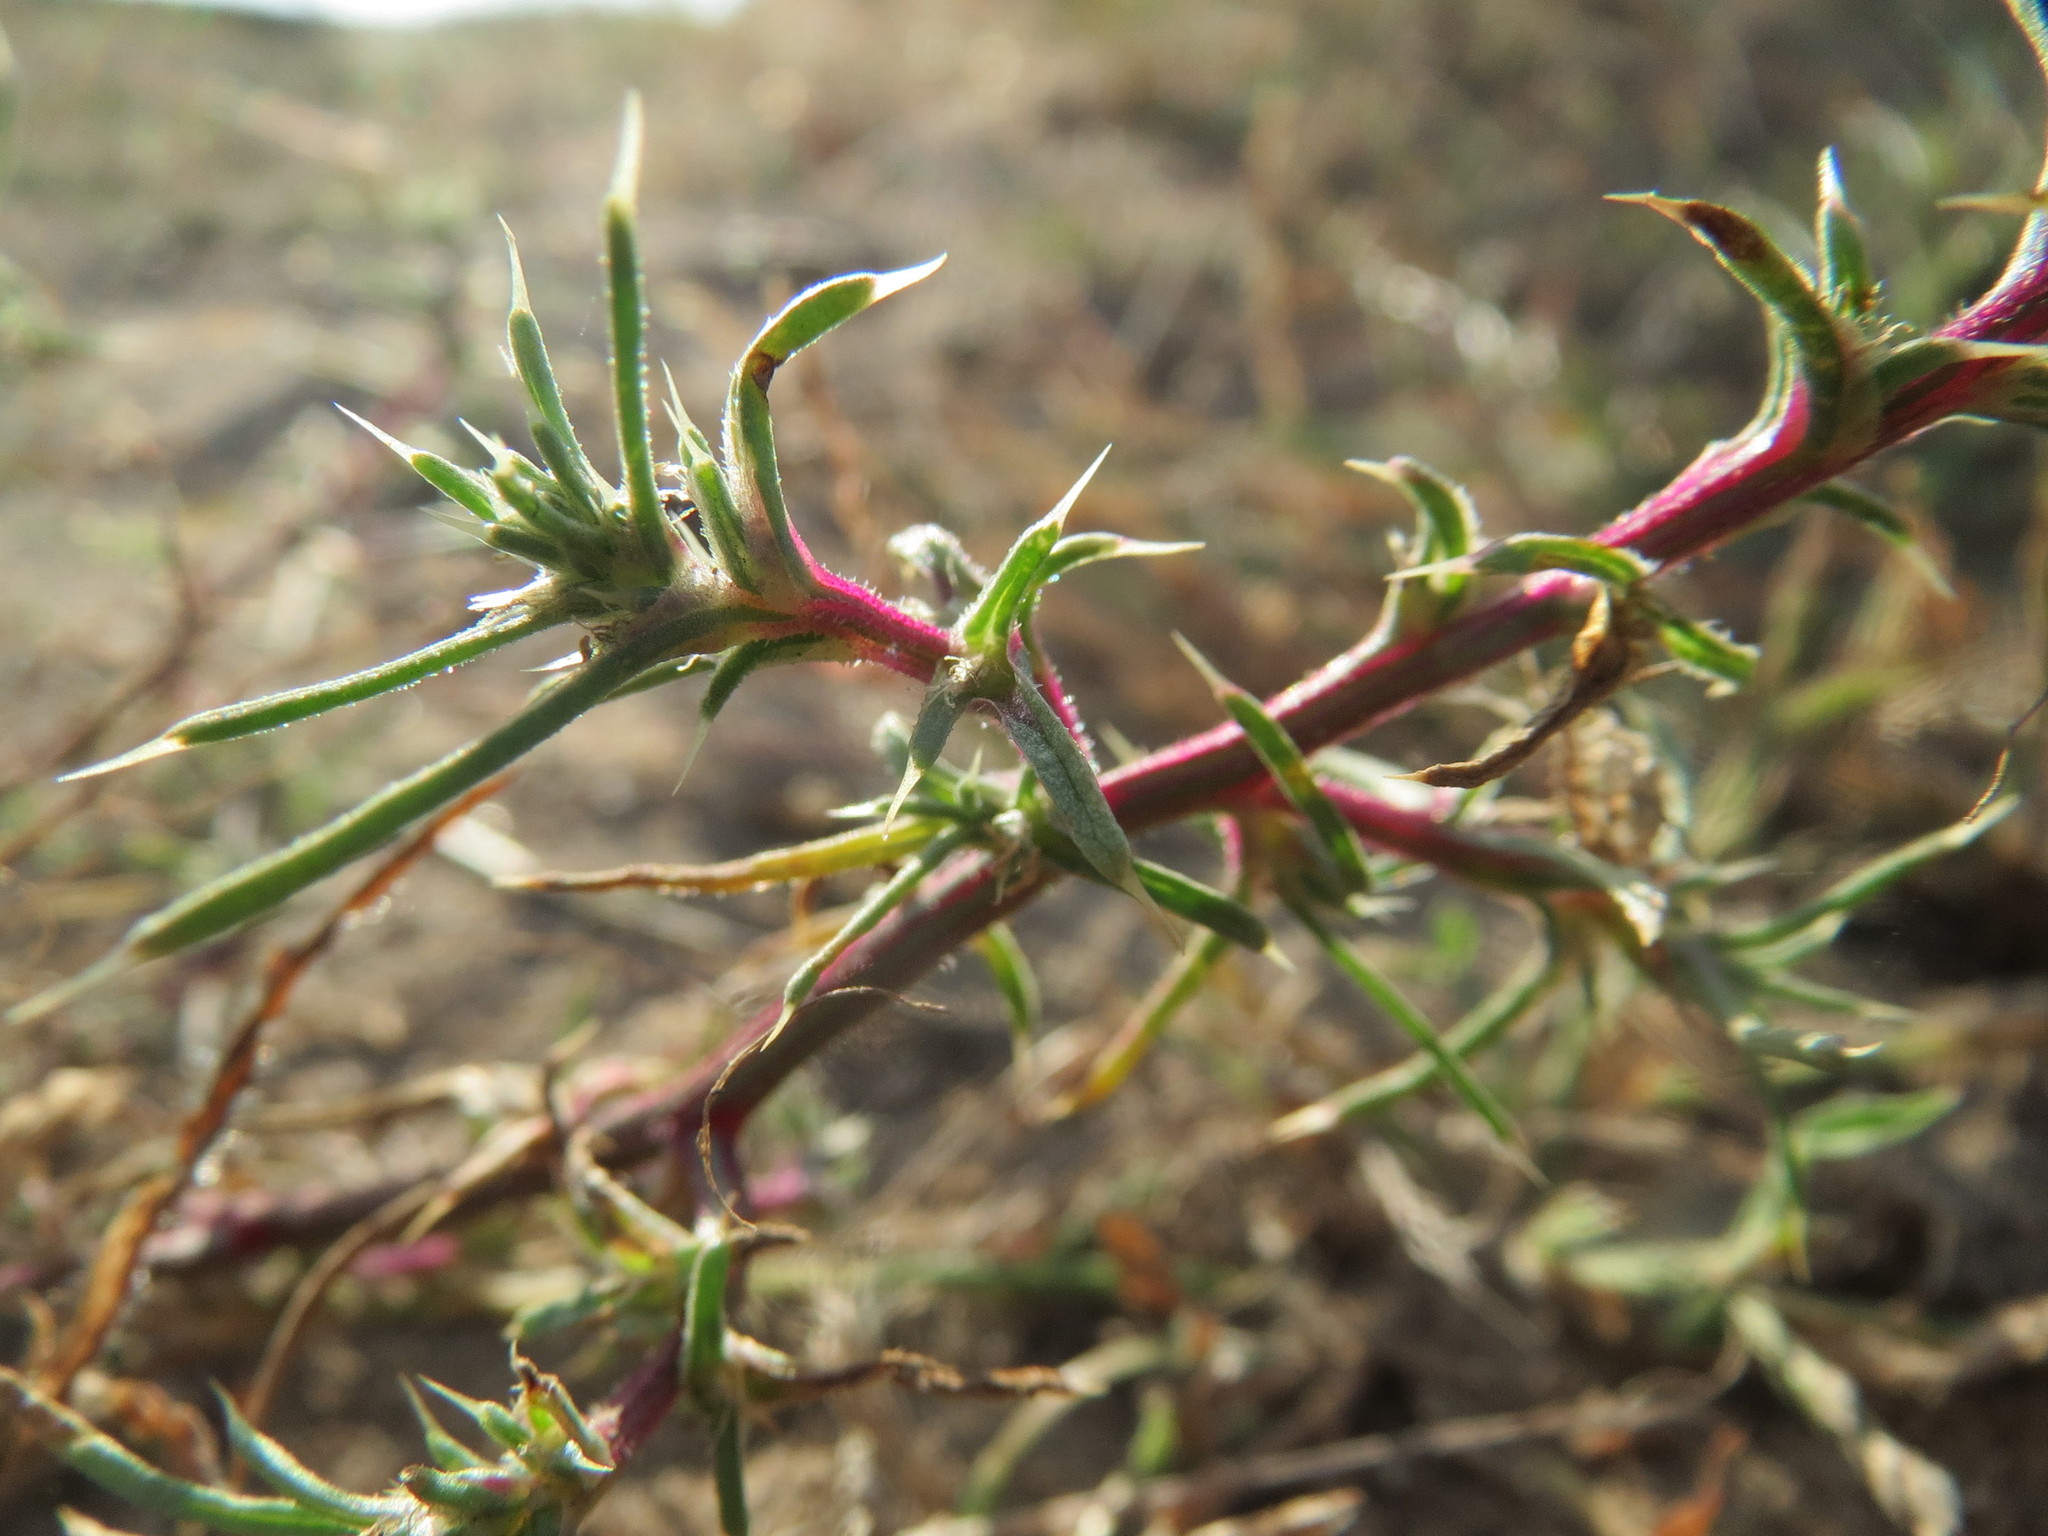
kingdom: Plantae
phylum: Tracheophyta
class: Magnoliopsida
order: Caryophyllales
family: Amaranthaceae
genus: Salsola
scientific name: Salsola tragus
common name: Prickly russian thistle
